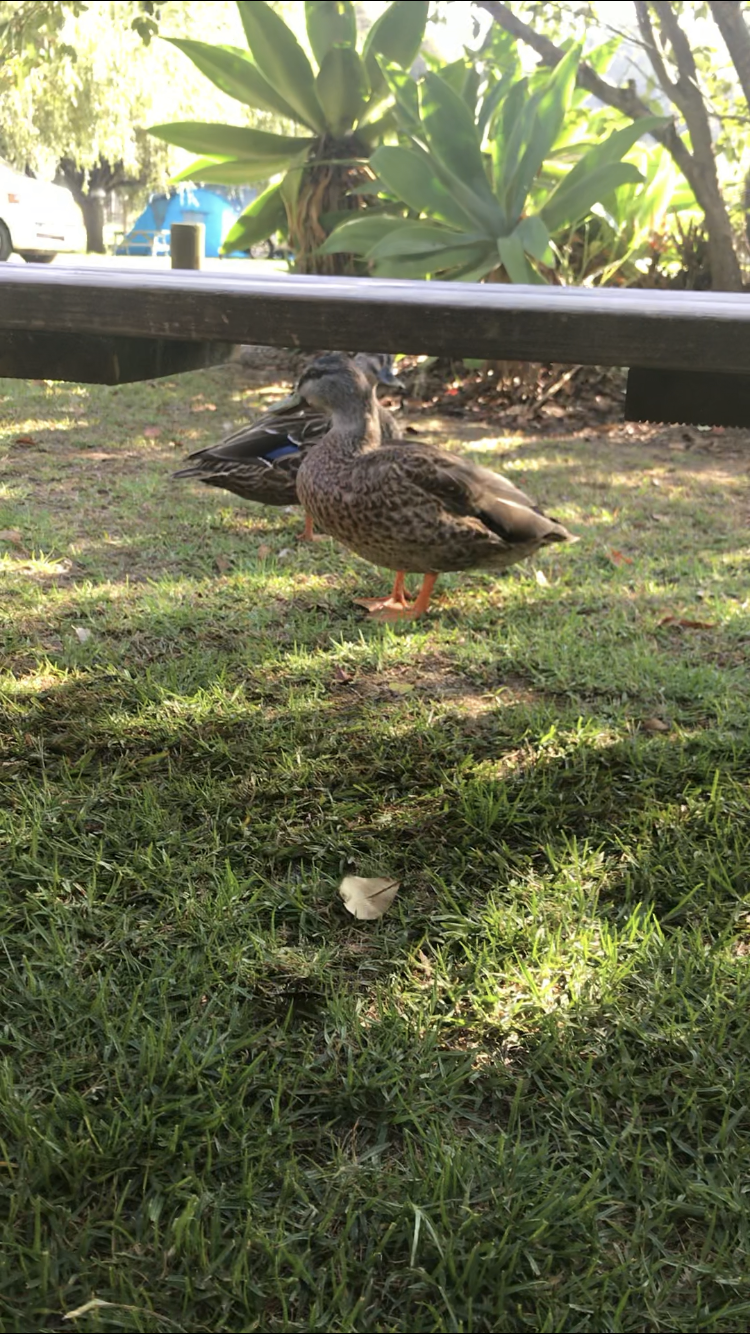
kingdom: Animalia
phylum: Chordata
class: Aves
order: Anseriformes
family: Anatidae
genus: Anas
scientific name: Anas
